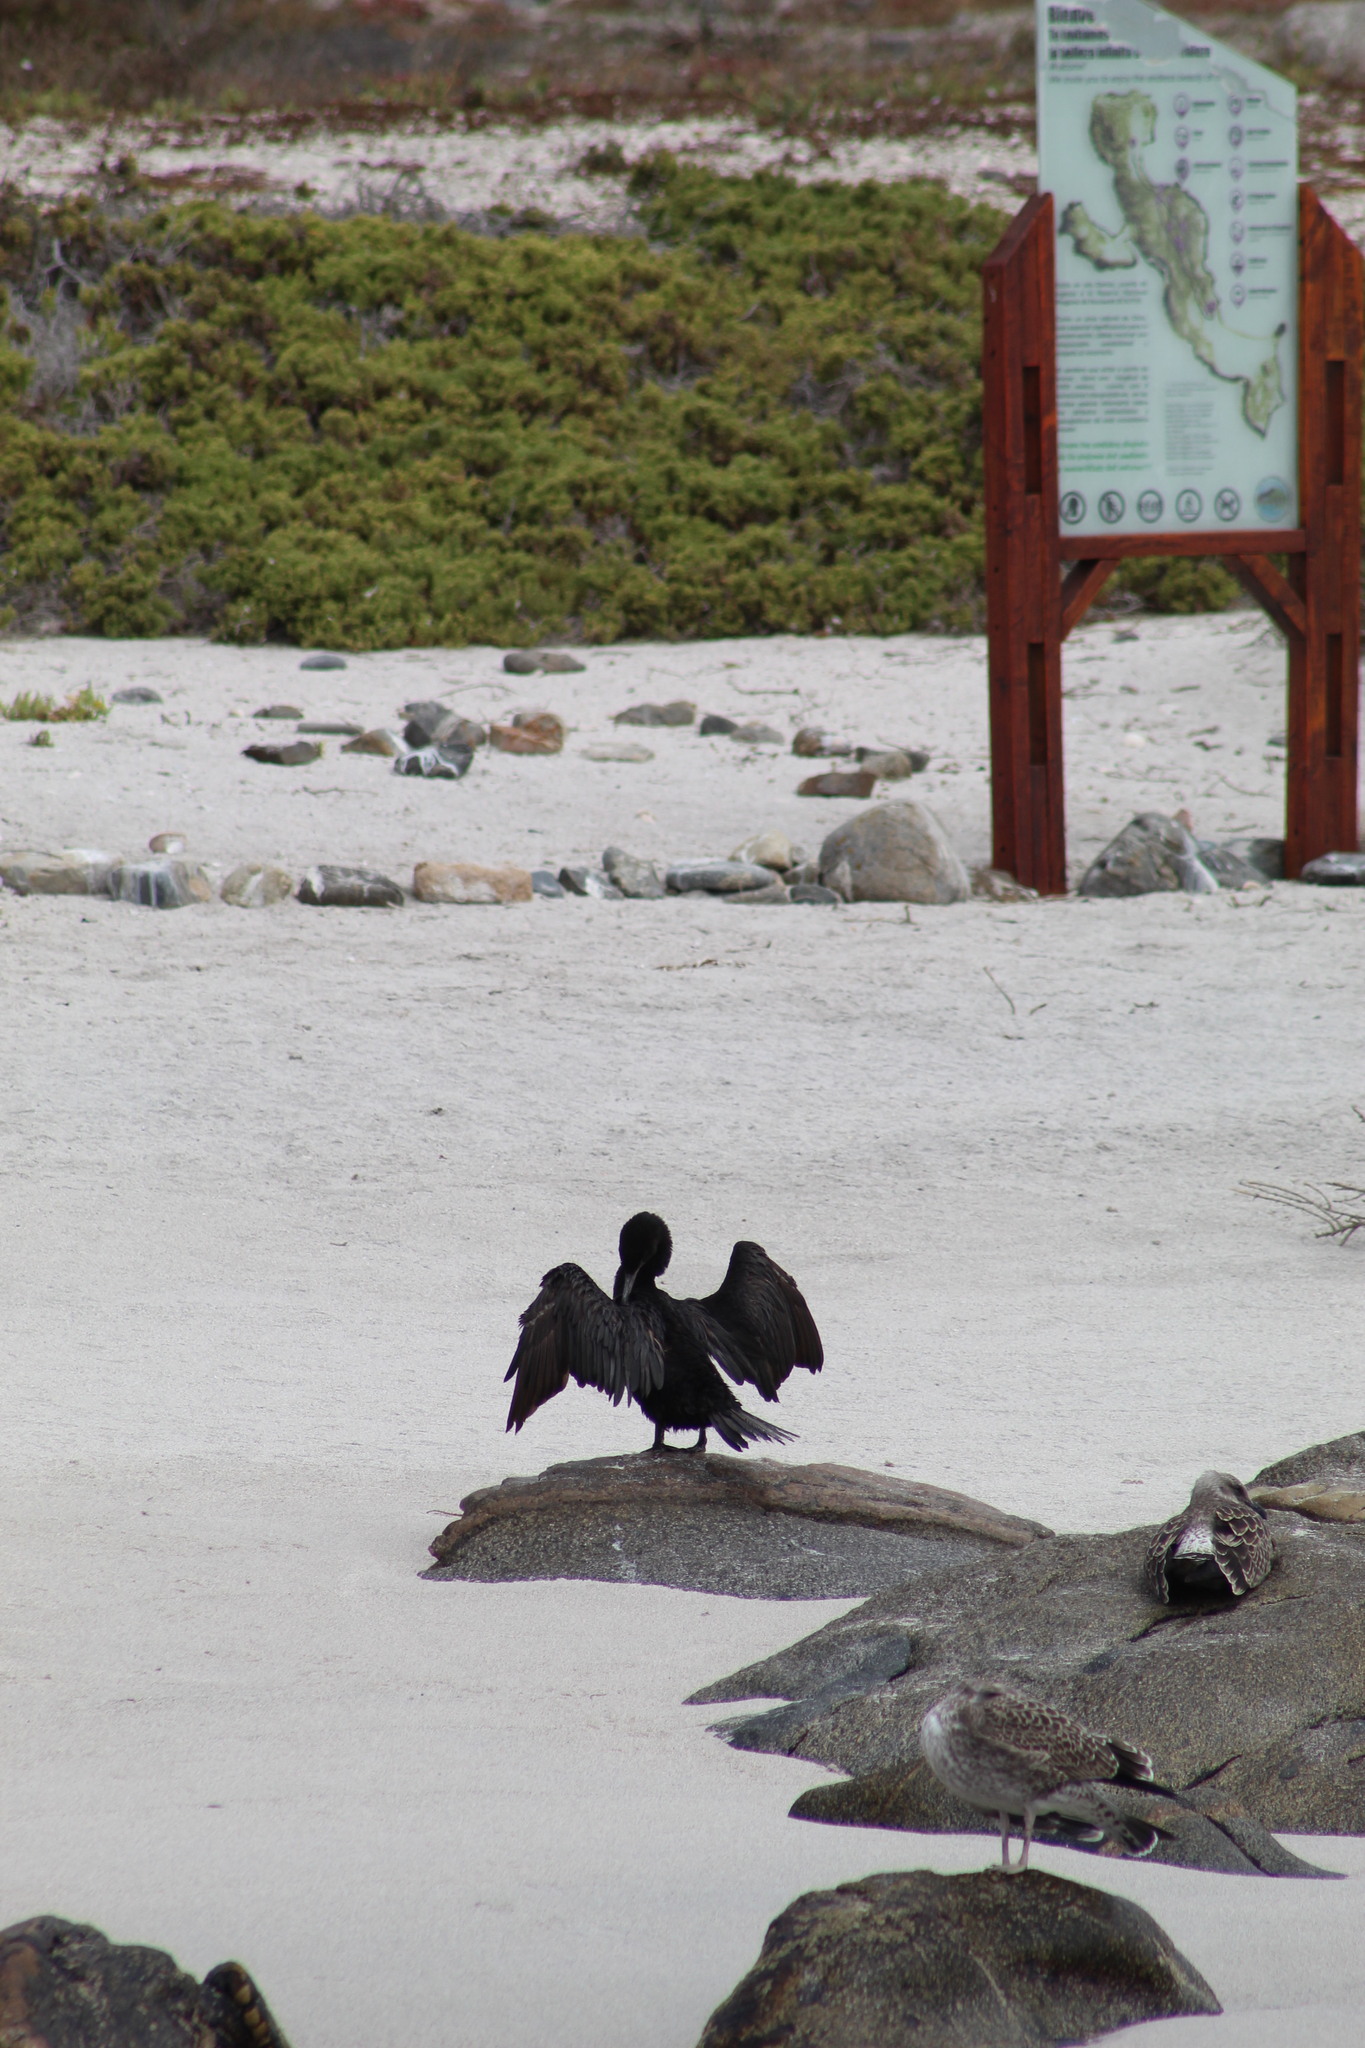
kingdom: Animalia
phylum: Chordata
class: Aves
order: Suliformes
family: Phalacrocoracidae
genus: Phalacrocorax
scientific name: Phalacrocorax brasilianus
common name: Neotropic cormorant
